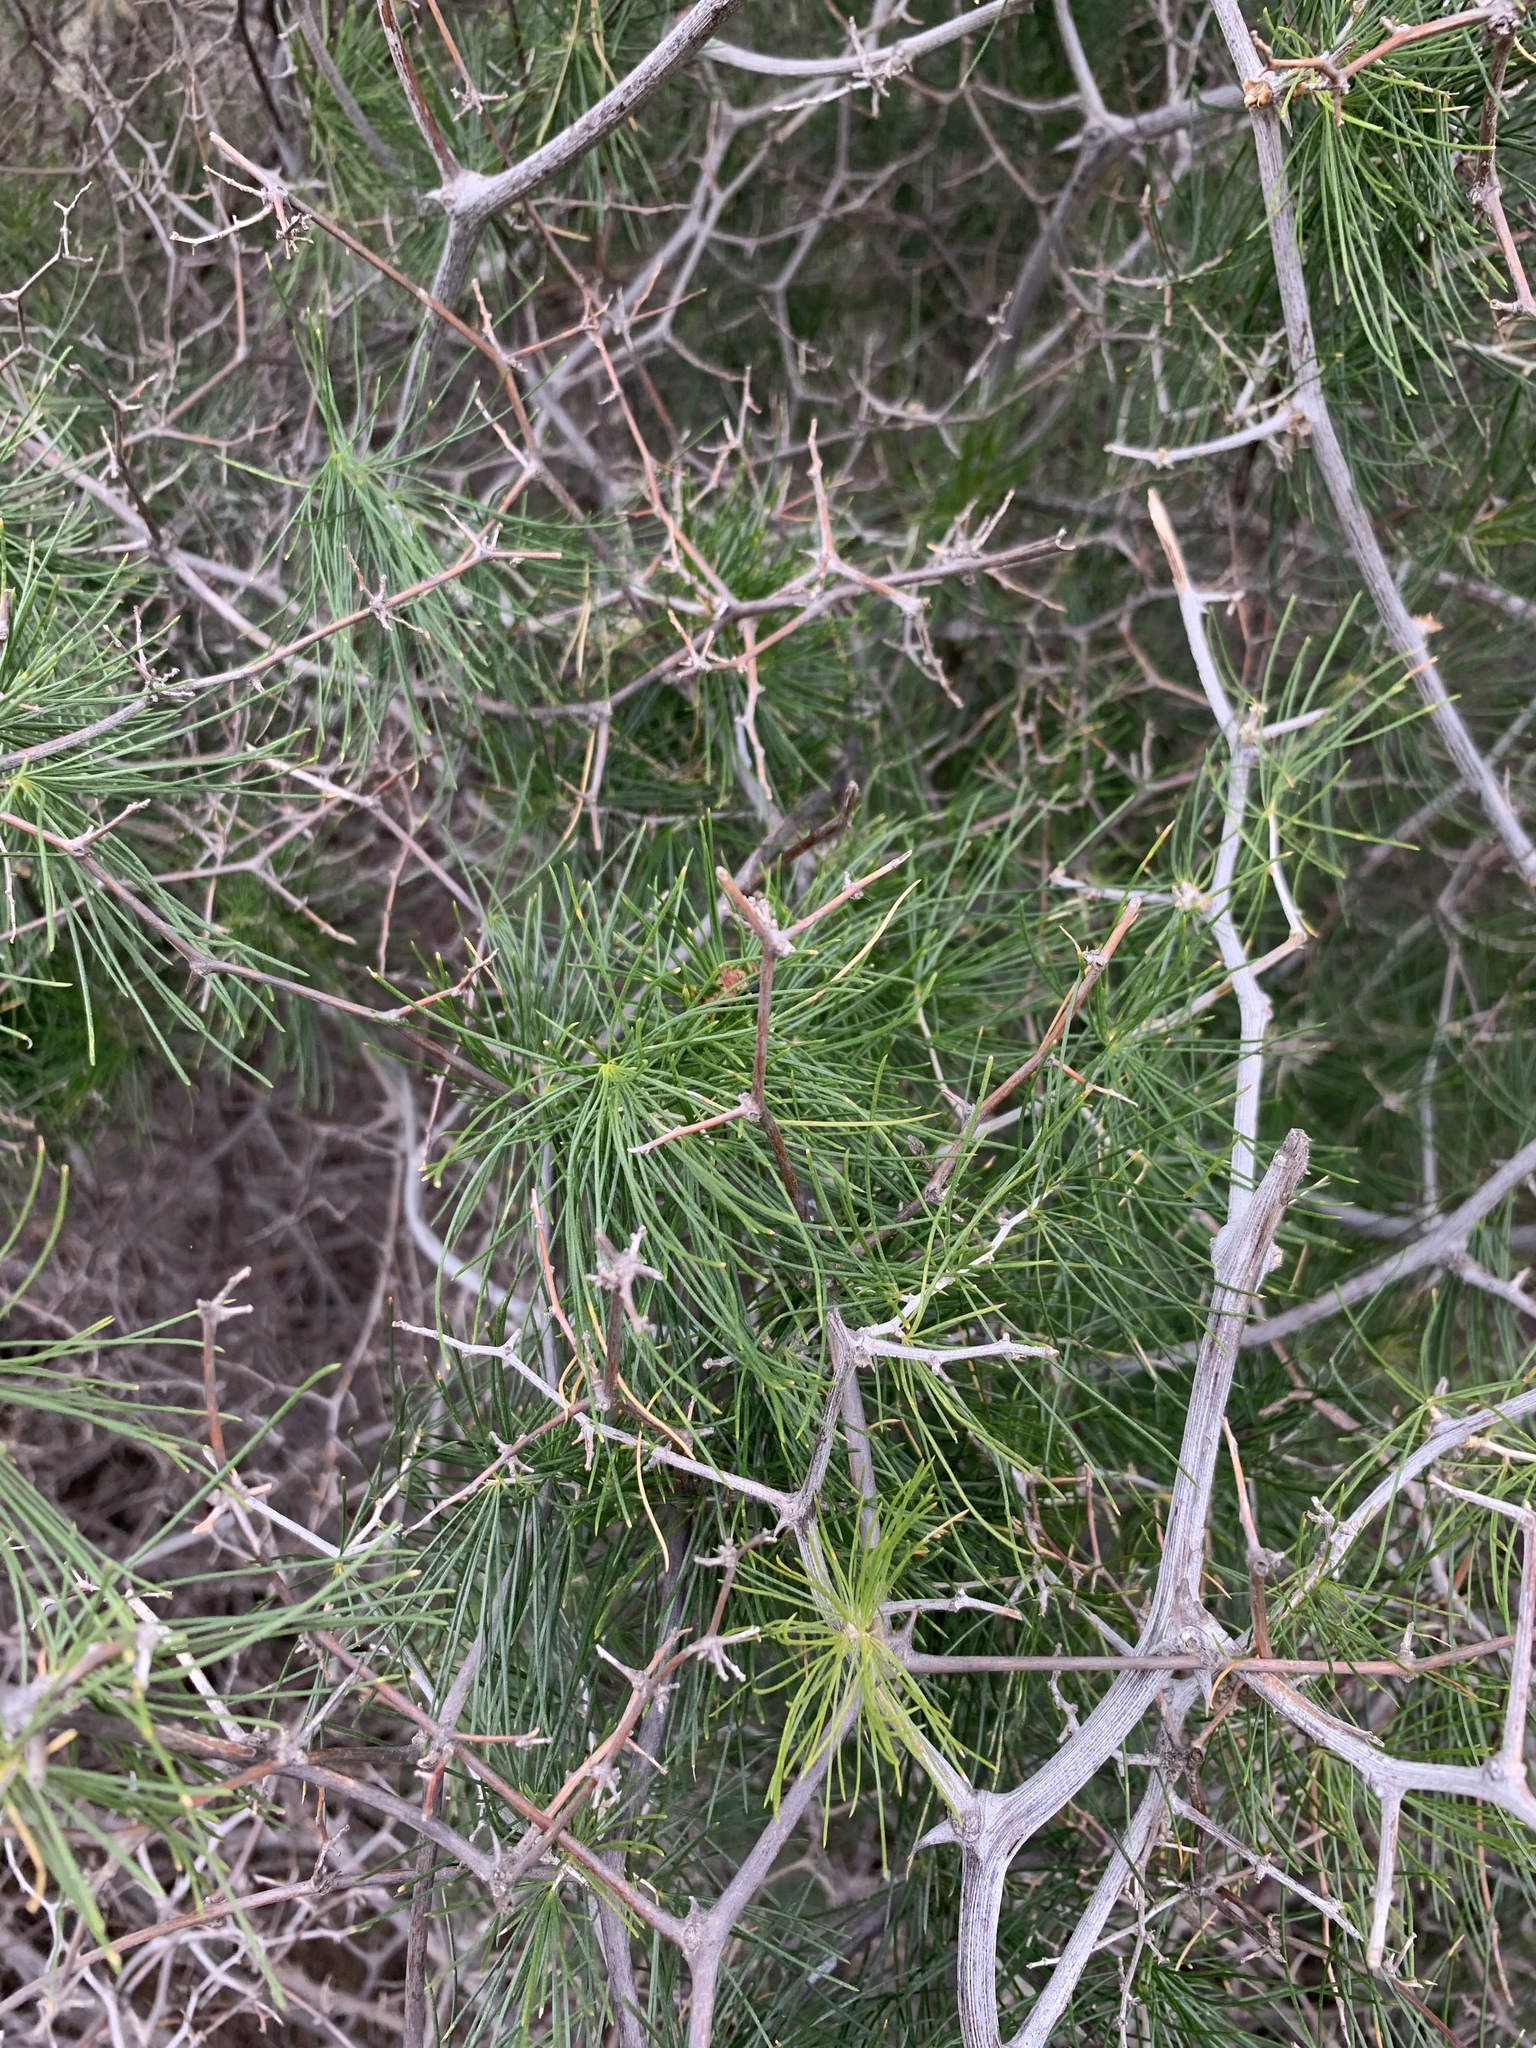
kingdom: Plantae
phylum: Tracheophyta
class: Liliopsida
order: Asparagales
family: Asparagaceae
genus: Asparagus
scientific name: Asparagus retrofractus
